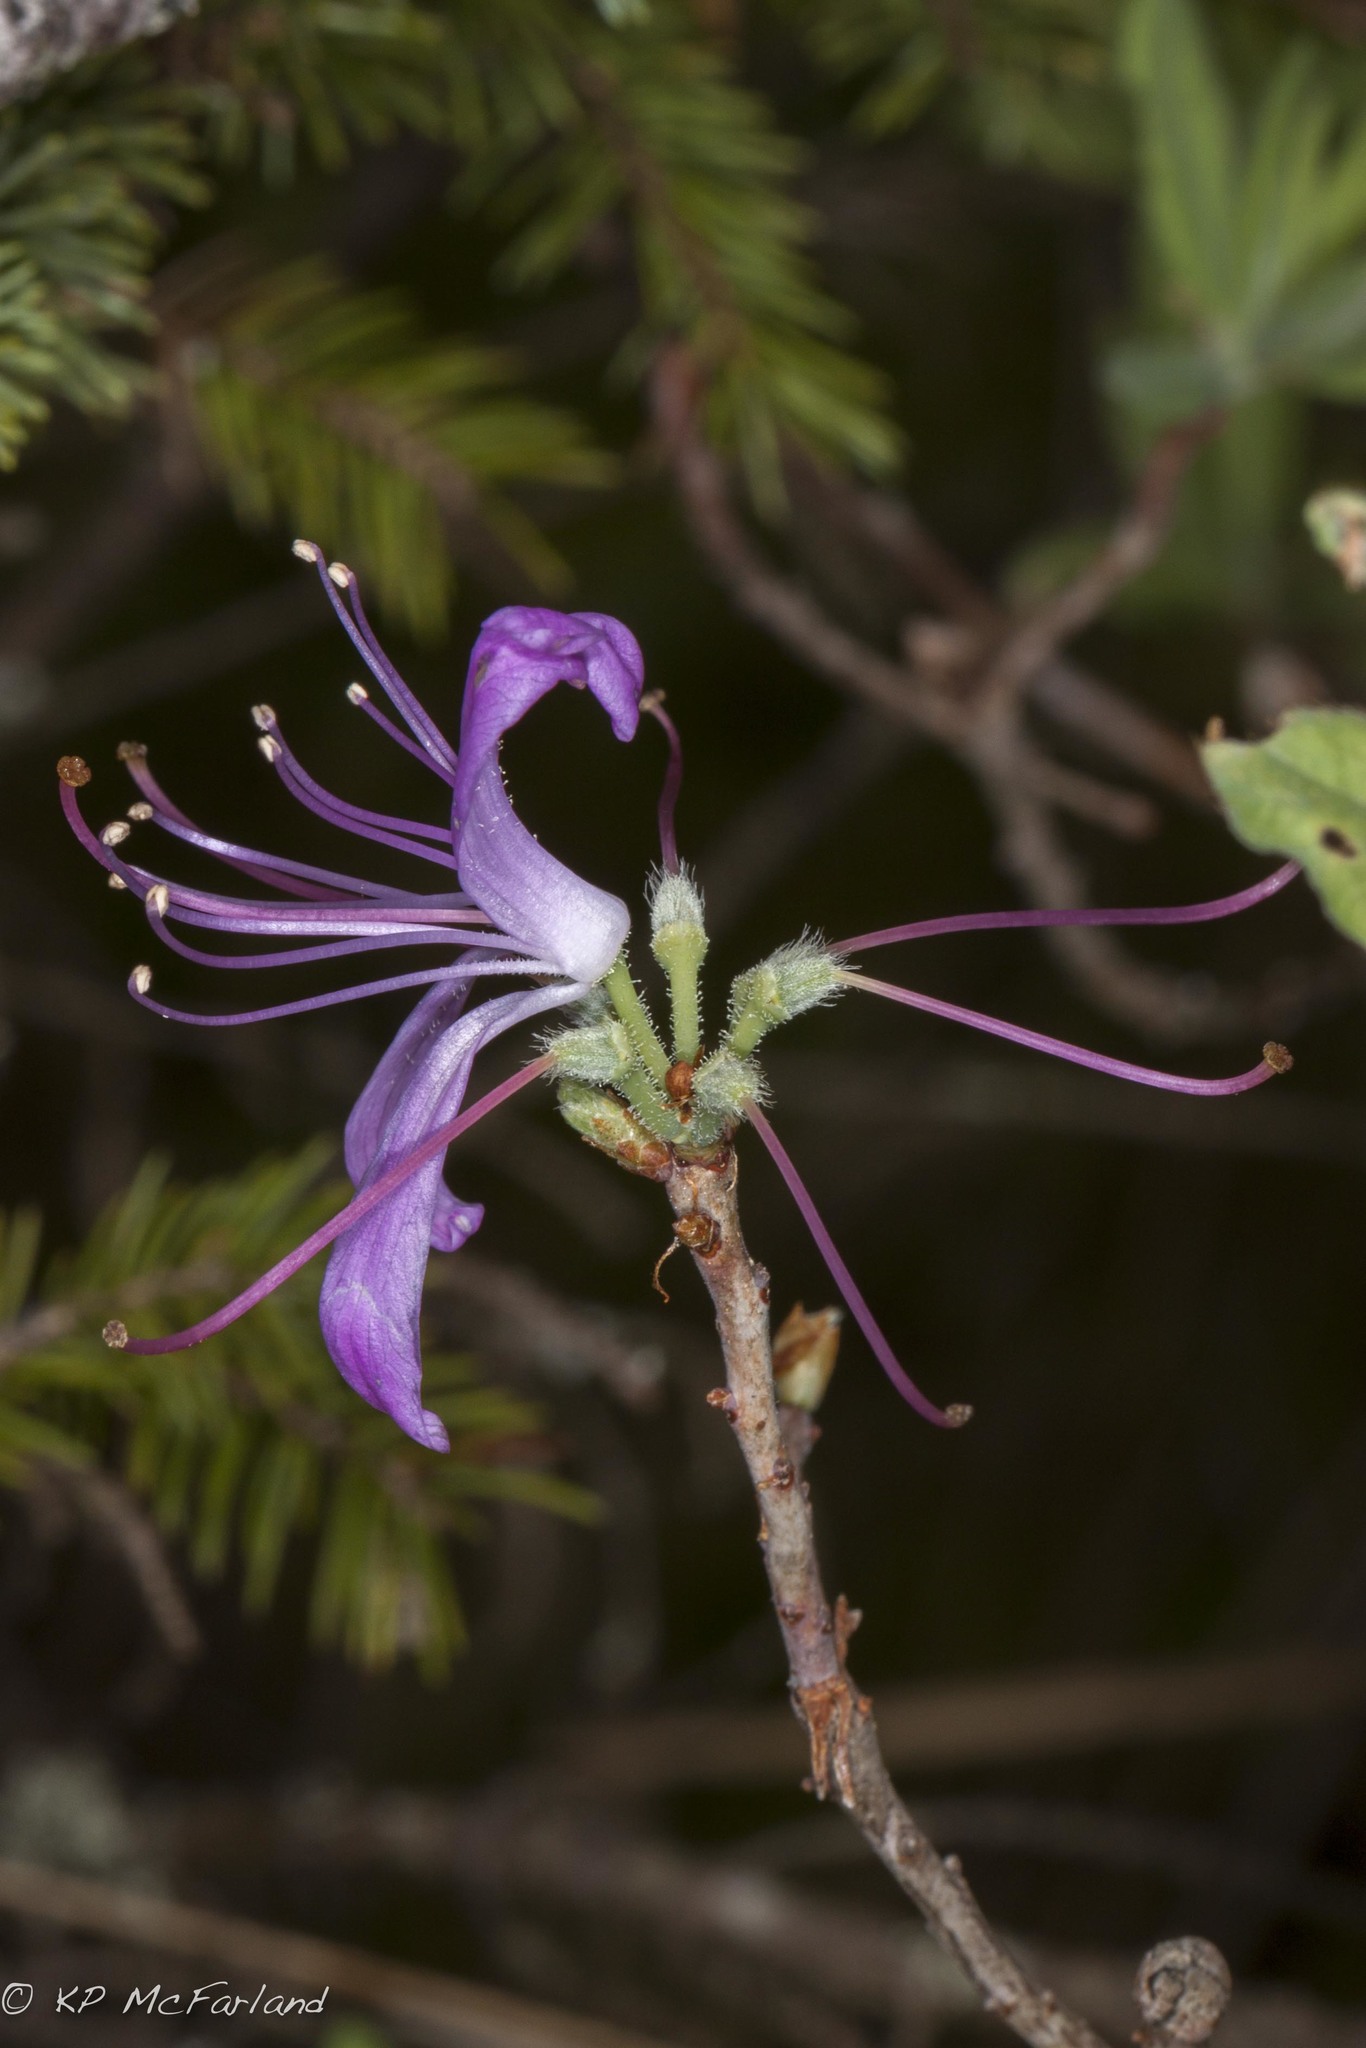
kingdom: Plantae
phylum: Tracheophyta
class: Magnoliopsida
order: Ericales
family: Ericaceae
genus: Rhododendron
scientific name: Rhododendron canadense
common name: Rhodora
